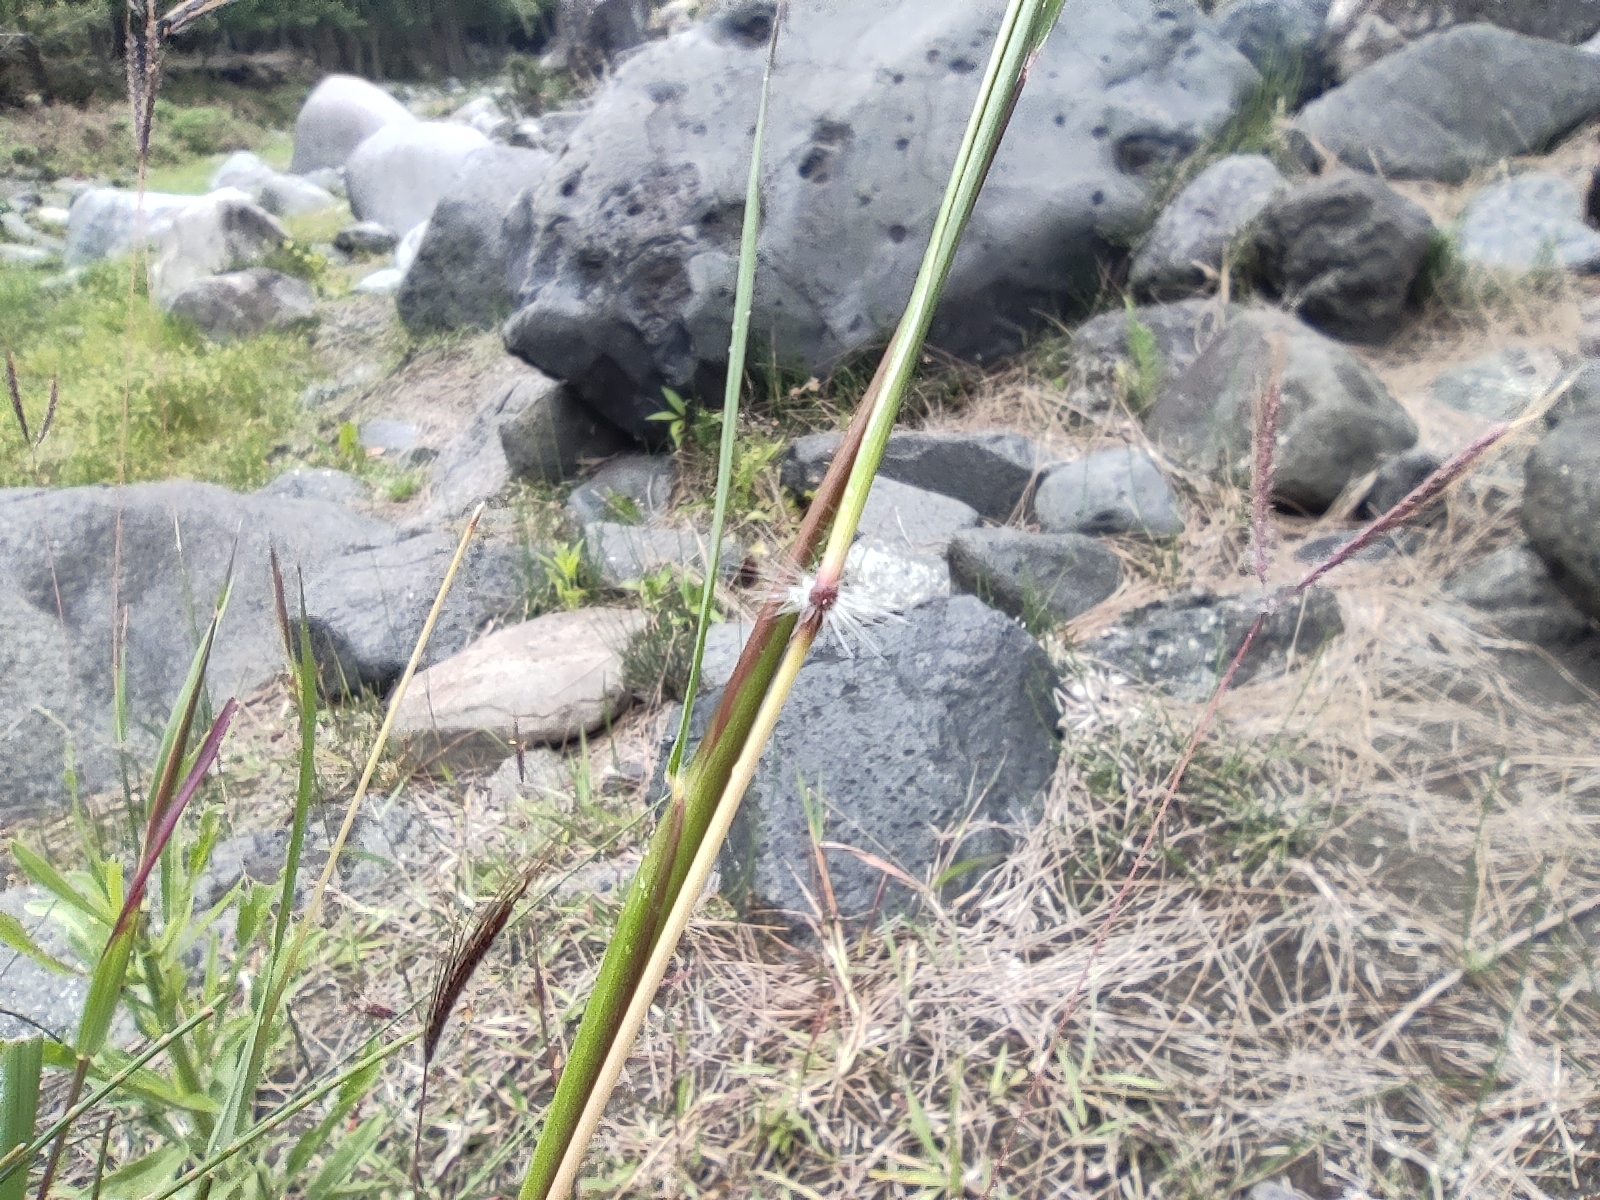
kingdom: Plantae
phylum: Tracheophyta
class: Liliopsida
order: Poales
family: Poaceae
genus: Dichanthium
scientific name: Dichanthium annulatum
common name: Kleberg's bluestem
